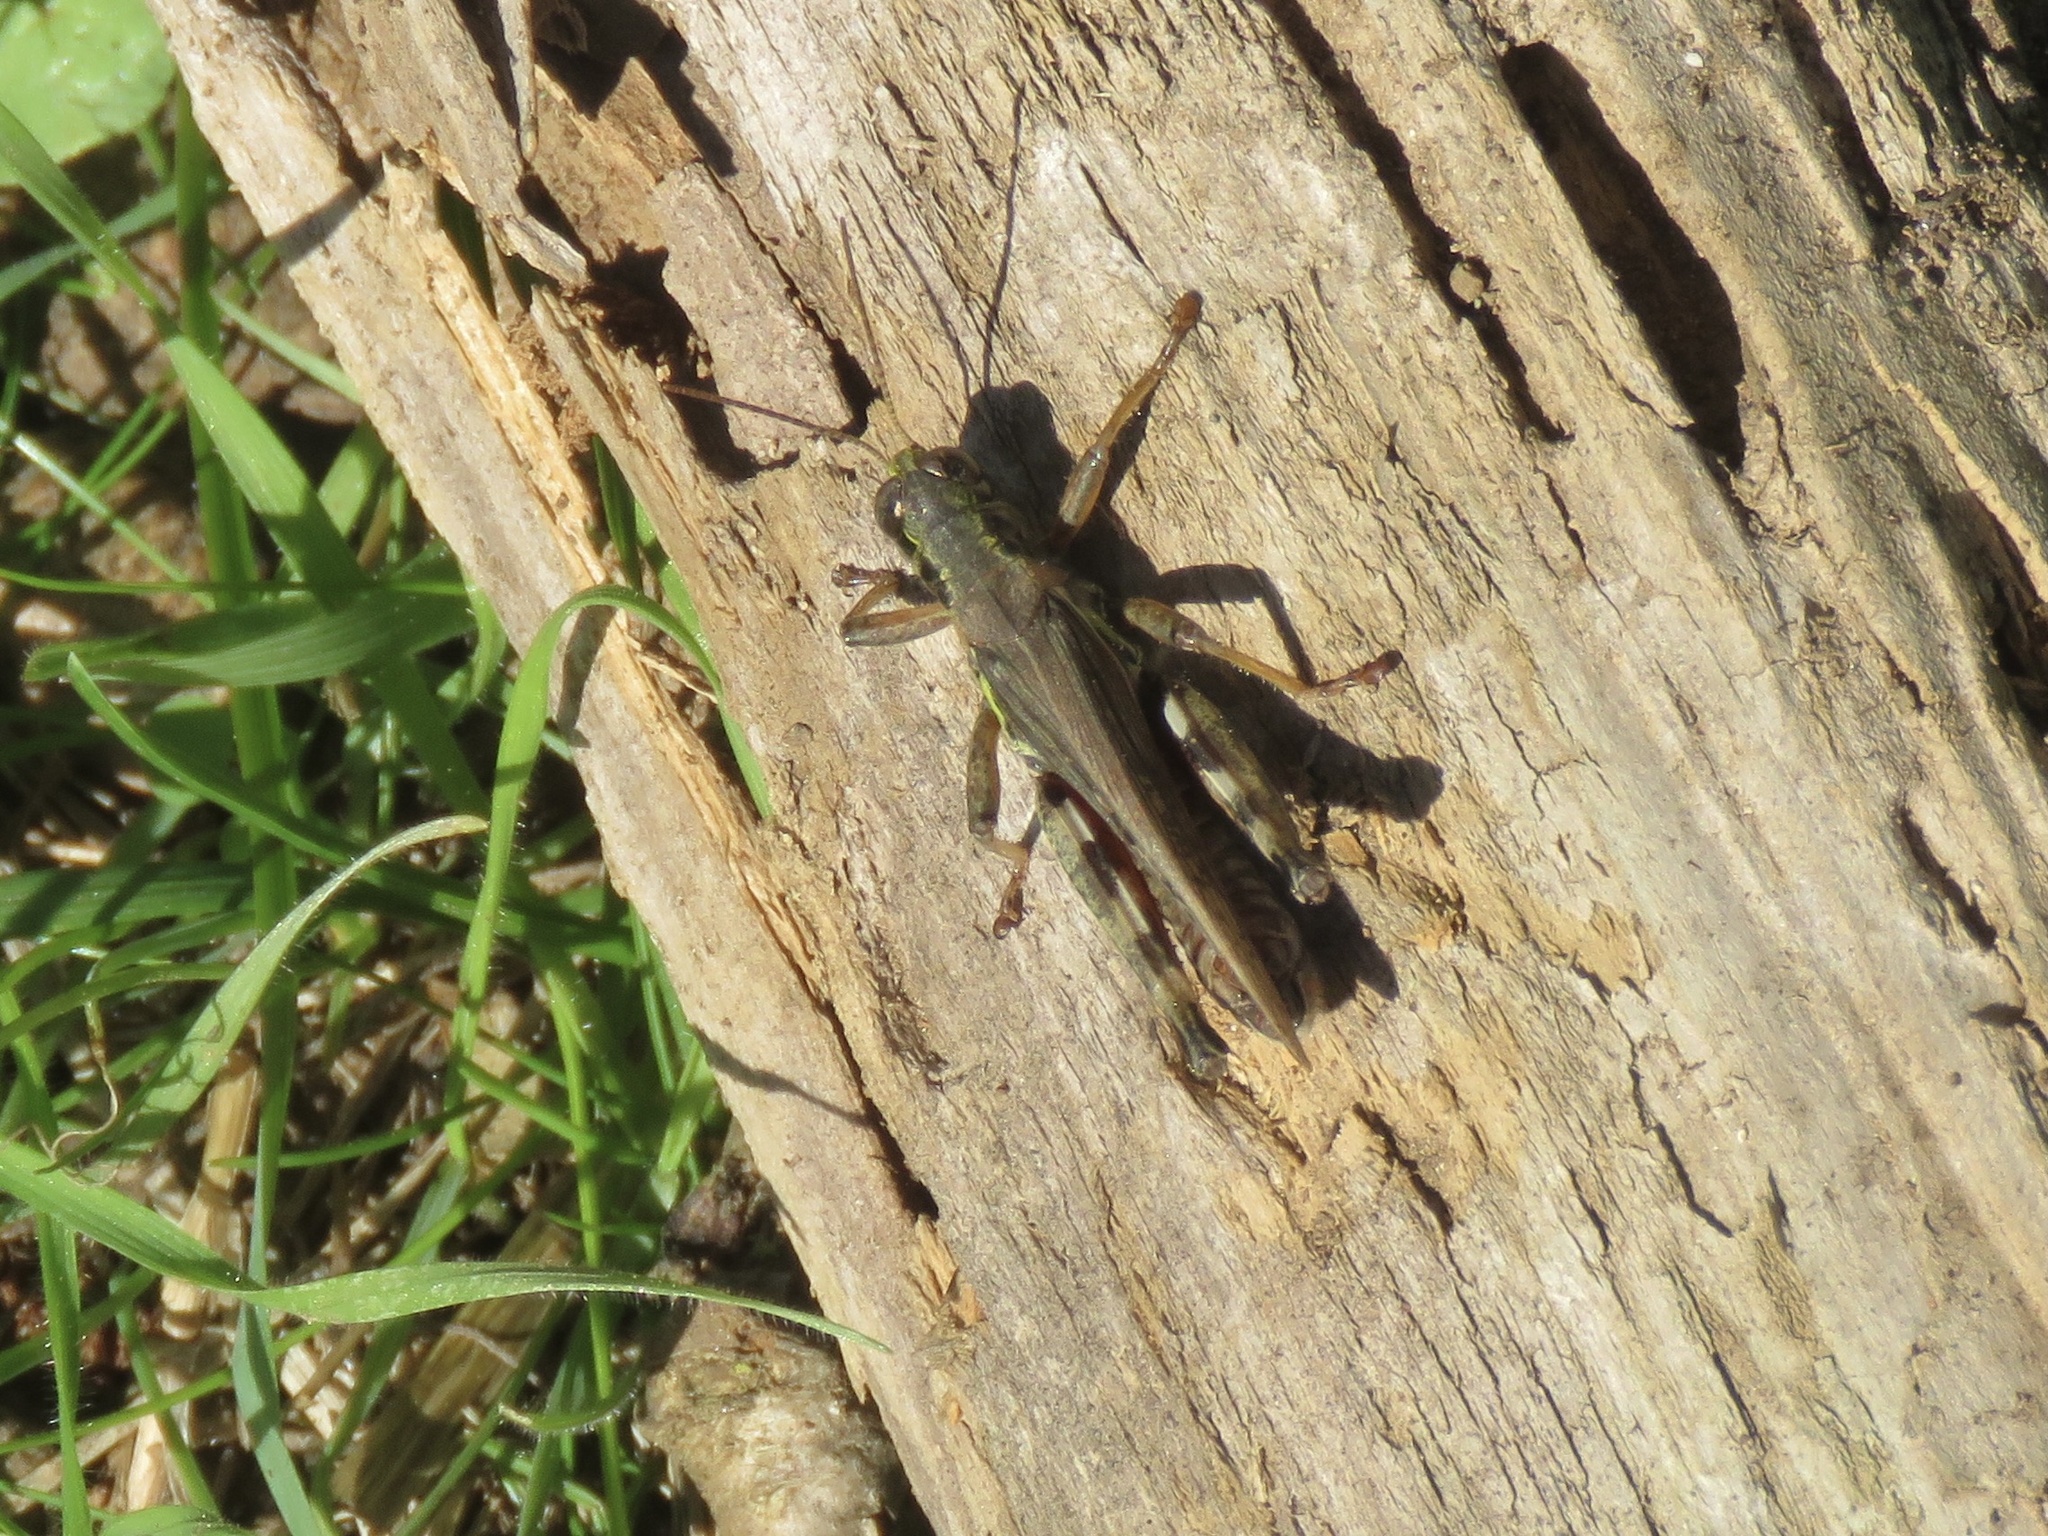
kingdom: Animalia
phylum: Arthropoda
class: Insecta
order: Orthoptera
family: Acrididae
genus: Melanoplus
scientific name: Melanoplus sanguinipes
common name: Migratory grasshopper
